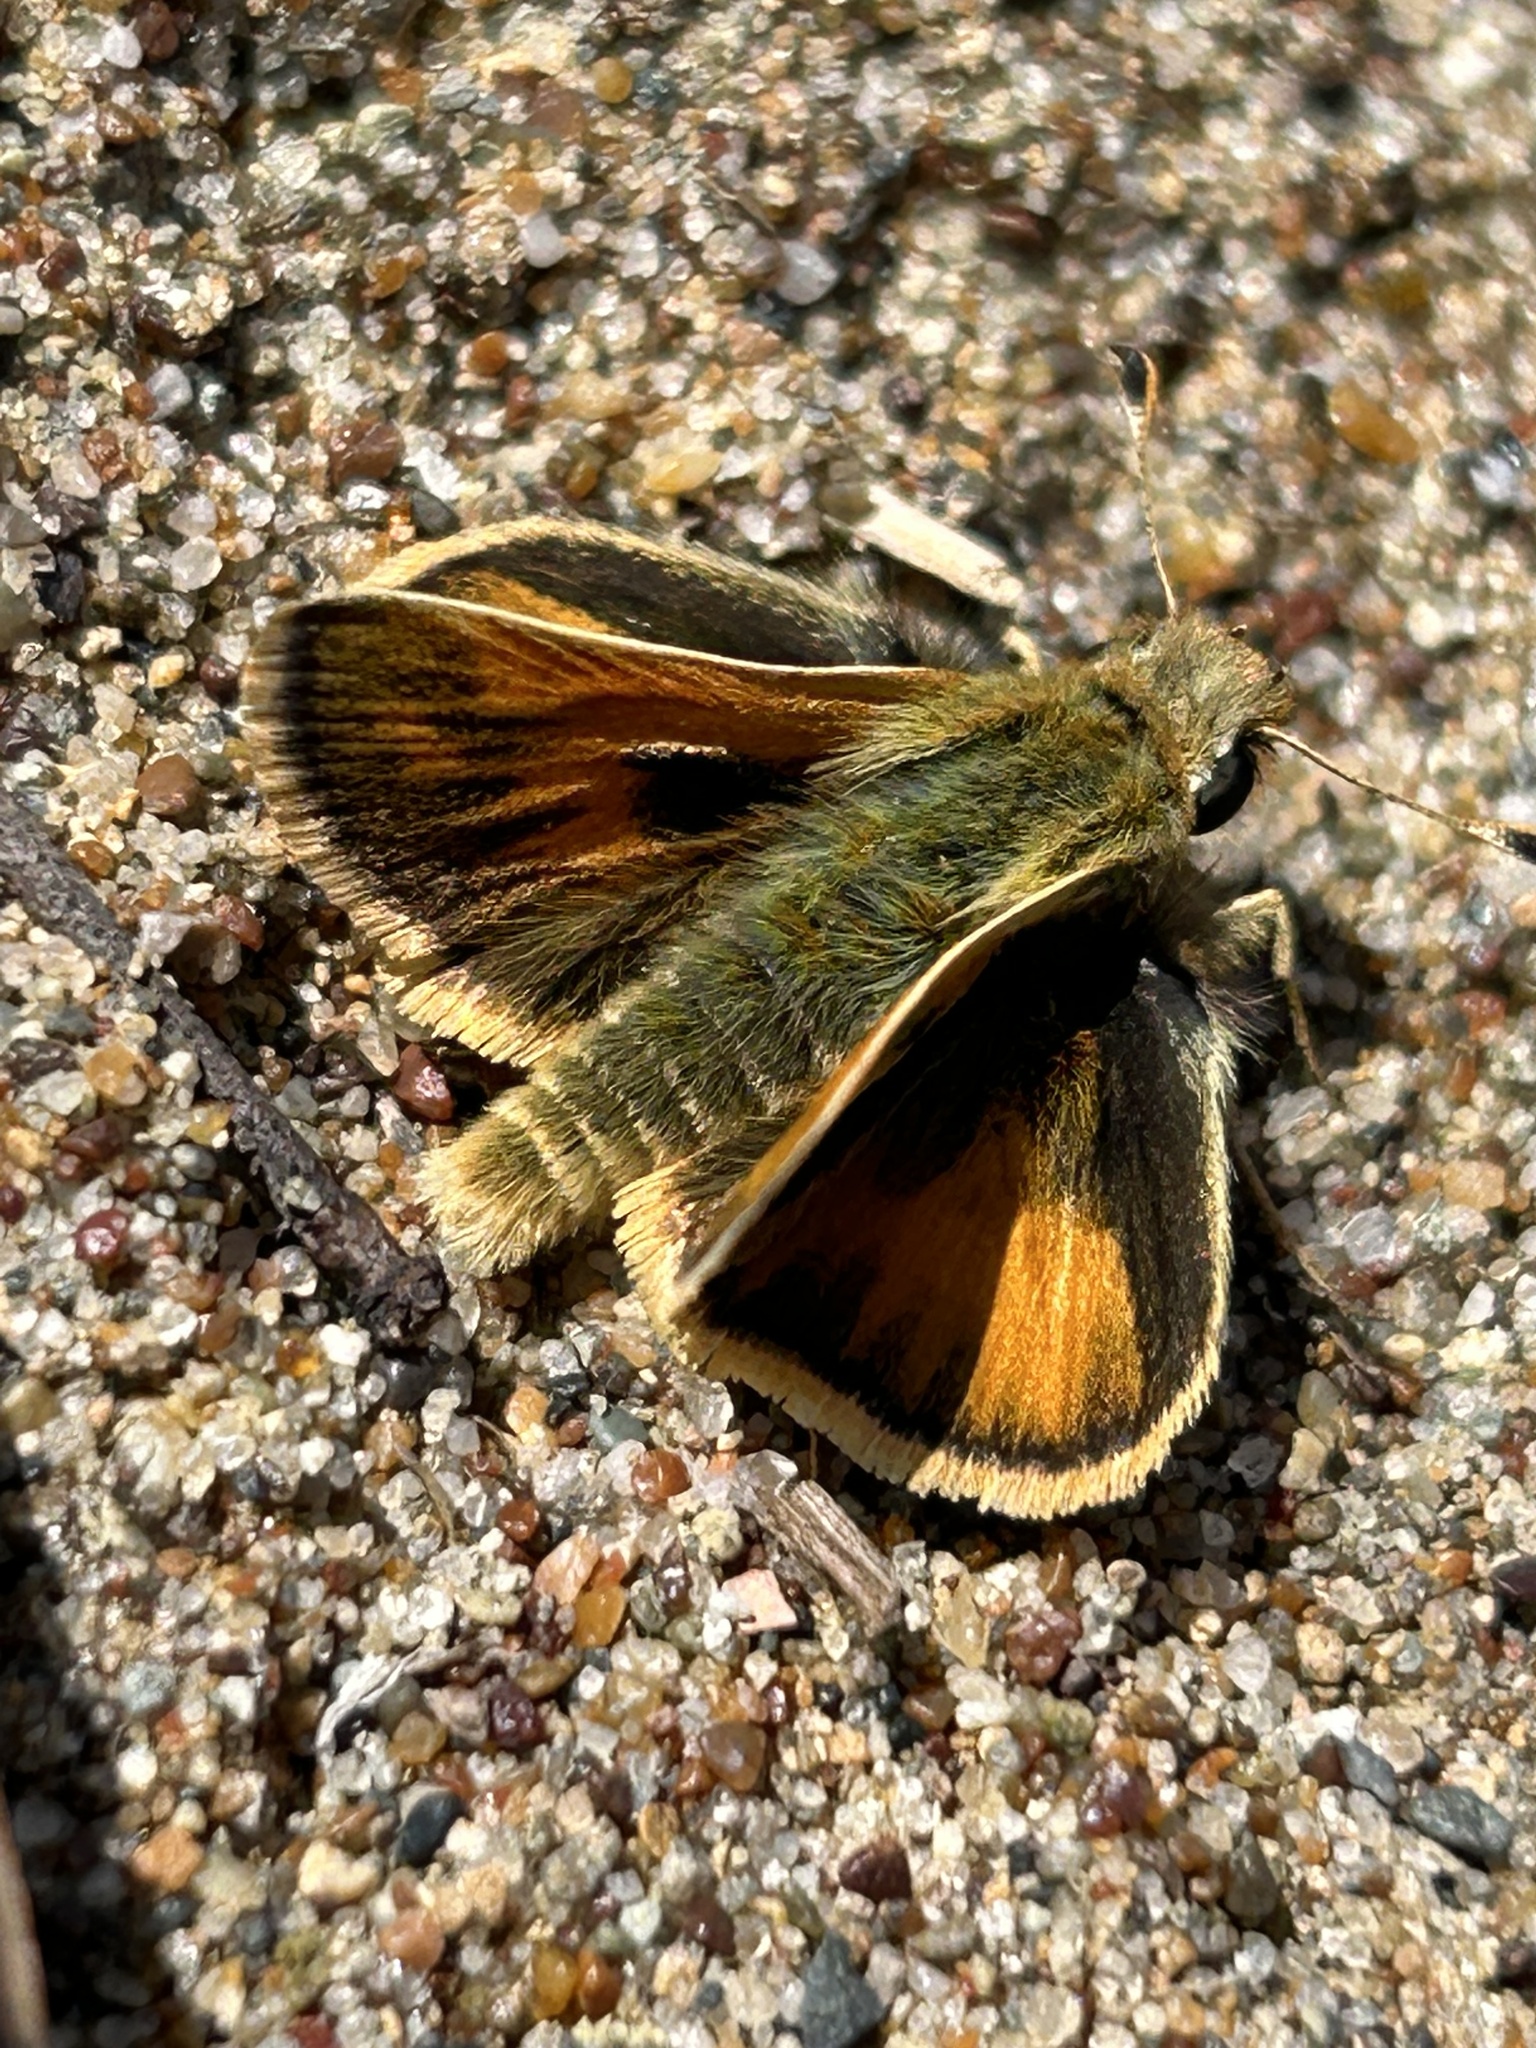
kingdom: Animalia
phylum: Arthropoda
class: Insecta
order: Lepidoptera
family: Hesperiidae
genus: Polites
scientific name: Polites sabuleti
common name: Sandhill skipper
